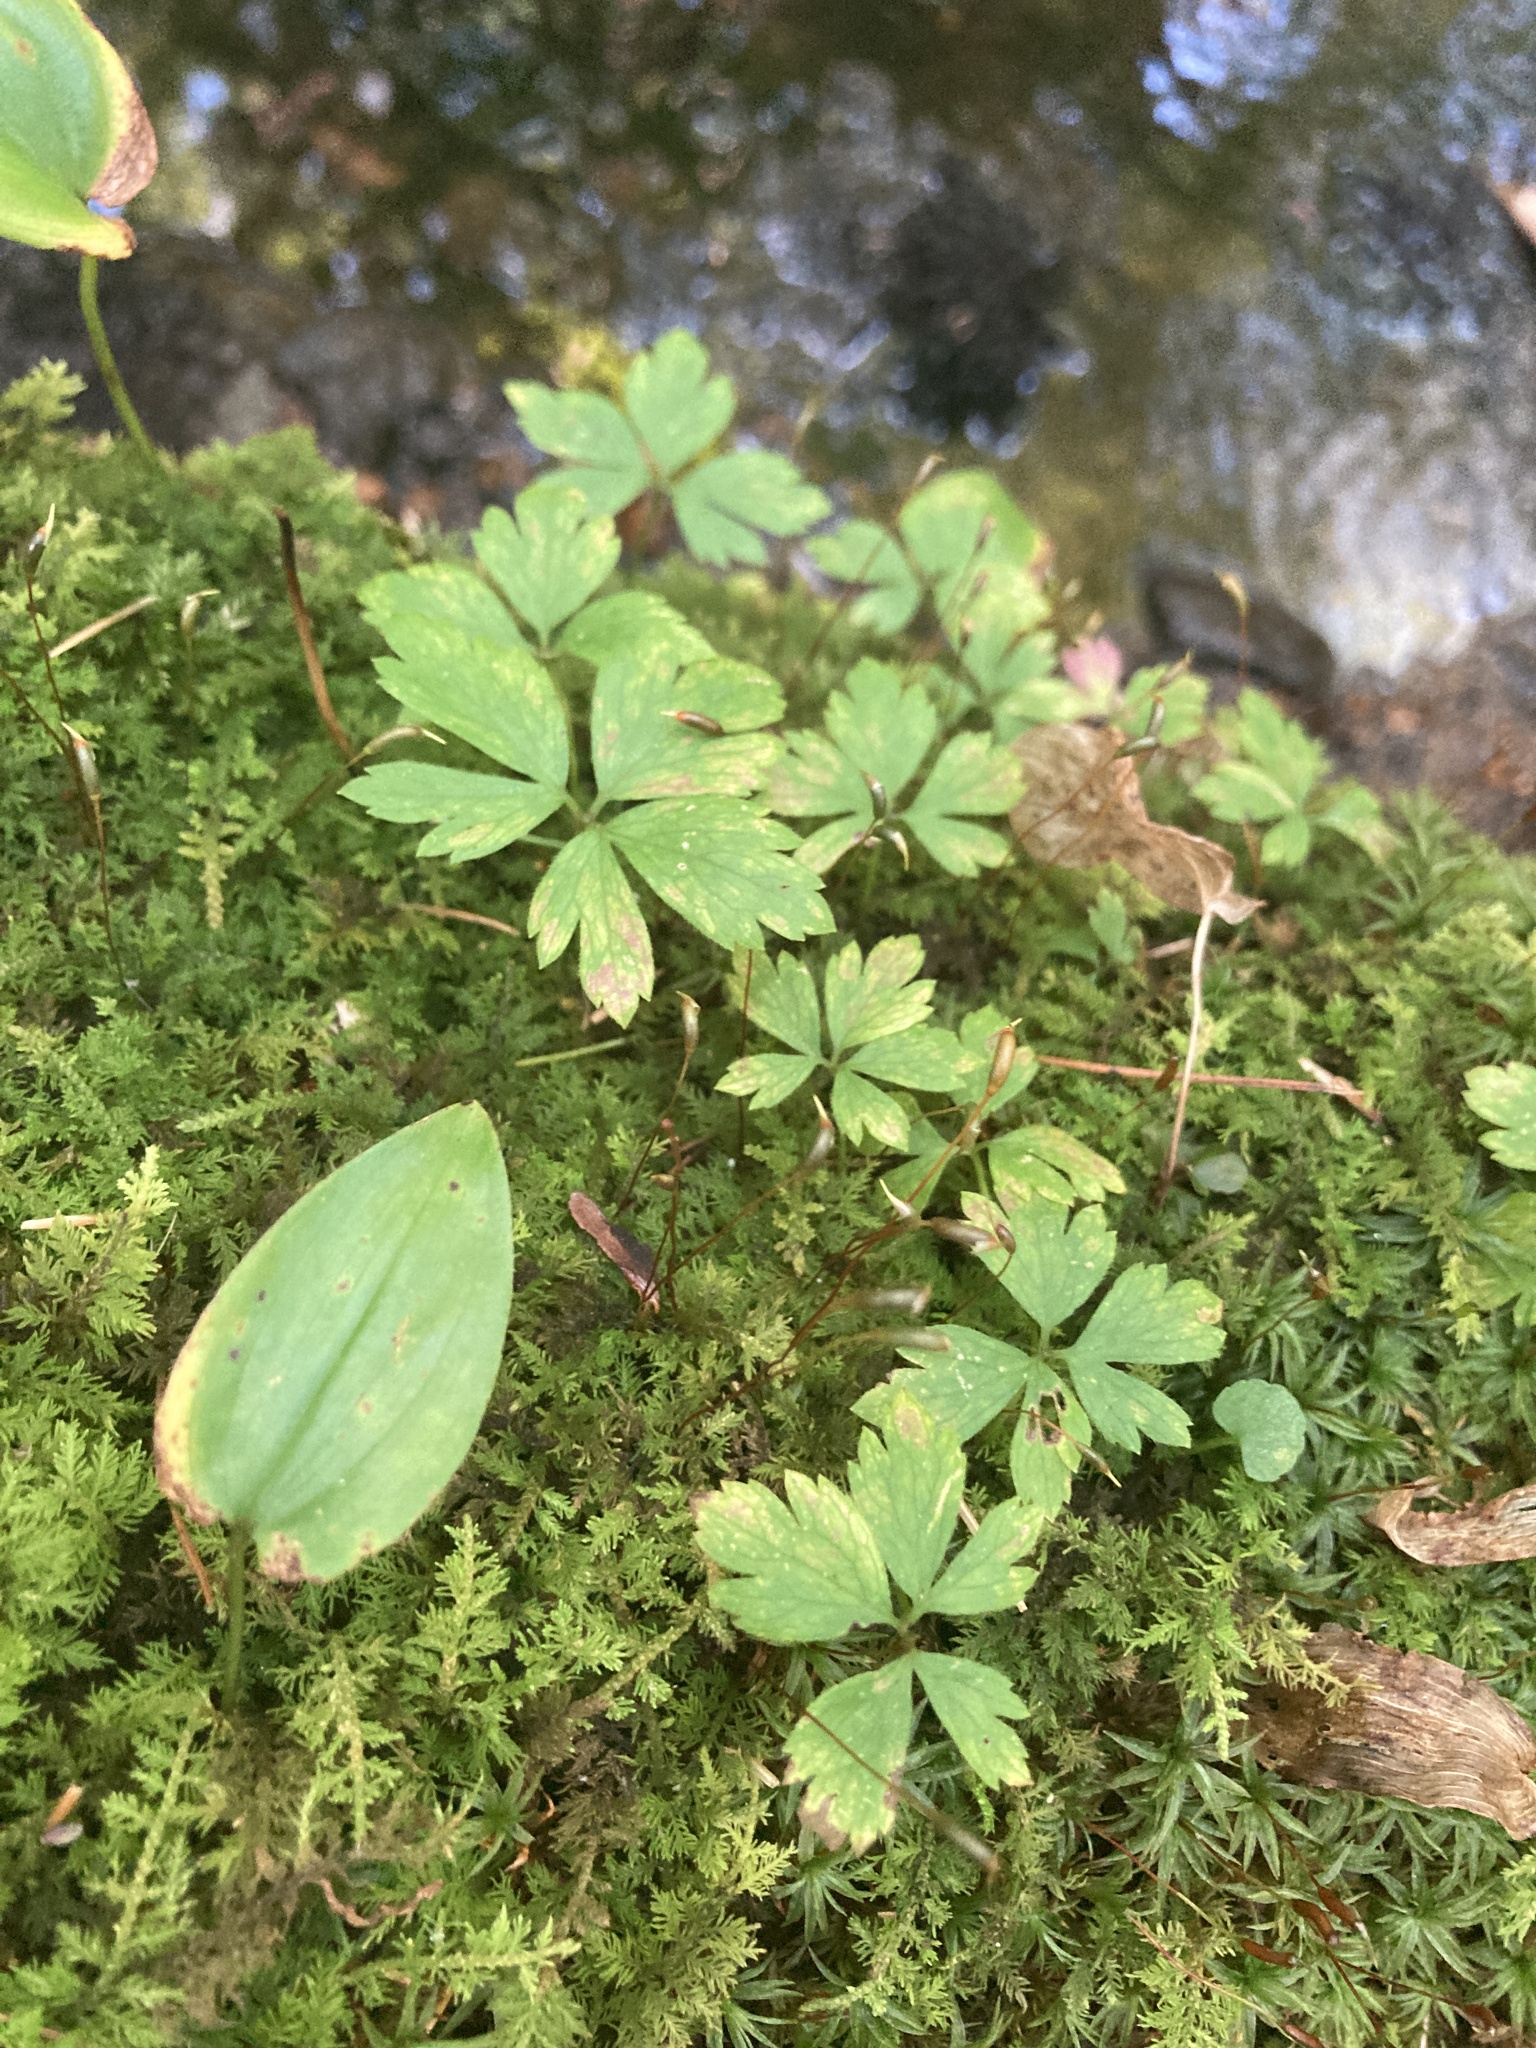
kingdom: Plantae
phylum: Tracheophyta
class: Magnoliopsida
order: Ranunculales
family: Ranunculaceae
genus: Anemone
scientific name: Anemone quinquefolia
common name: Wood anemone
